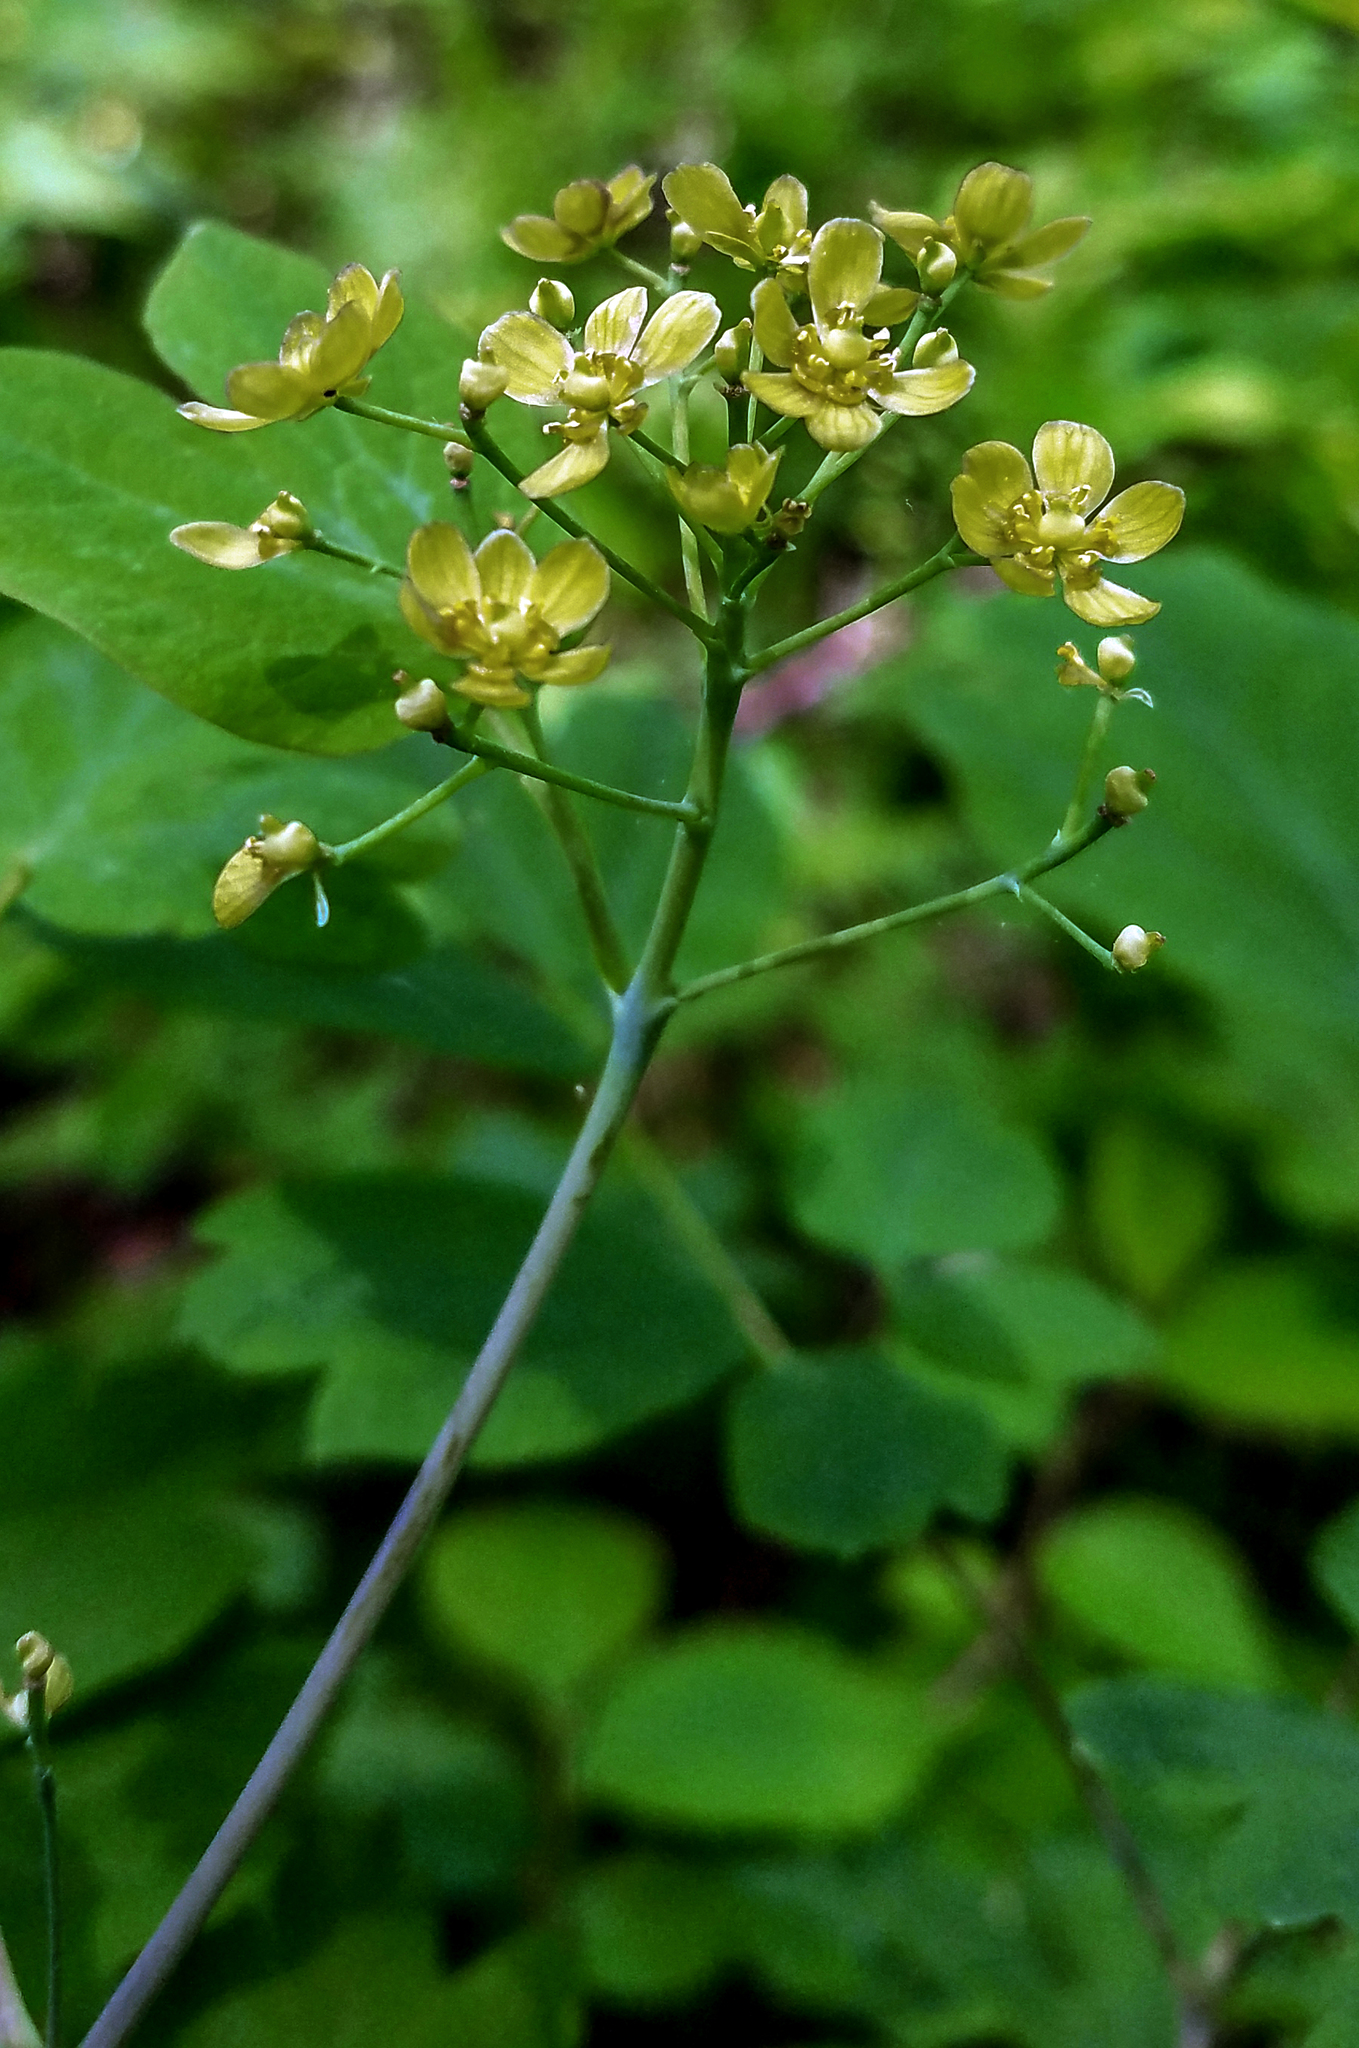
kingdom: Plantae
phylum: Tracheophyta
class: Magnoliopsida
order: Ranunculales
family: Berberidaceae
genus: Caulophyllum
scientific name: Caulophyllum thalictroides
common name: Blue cohosh
